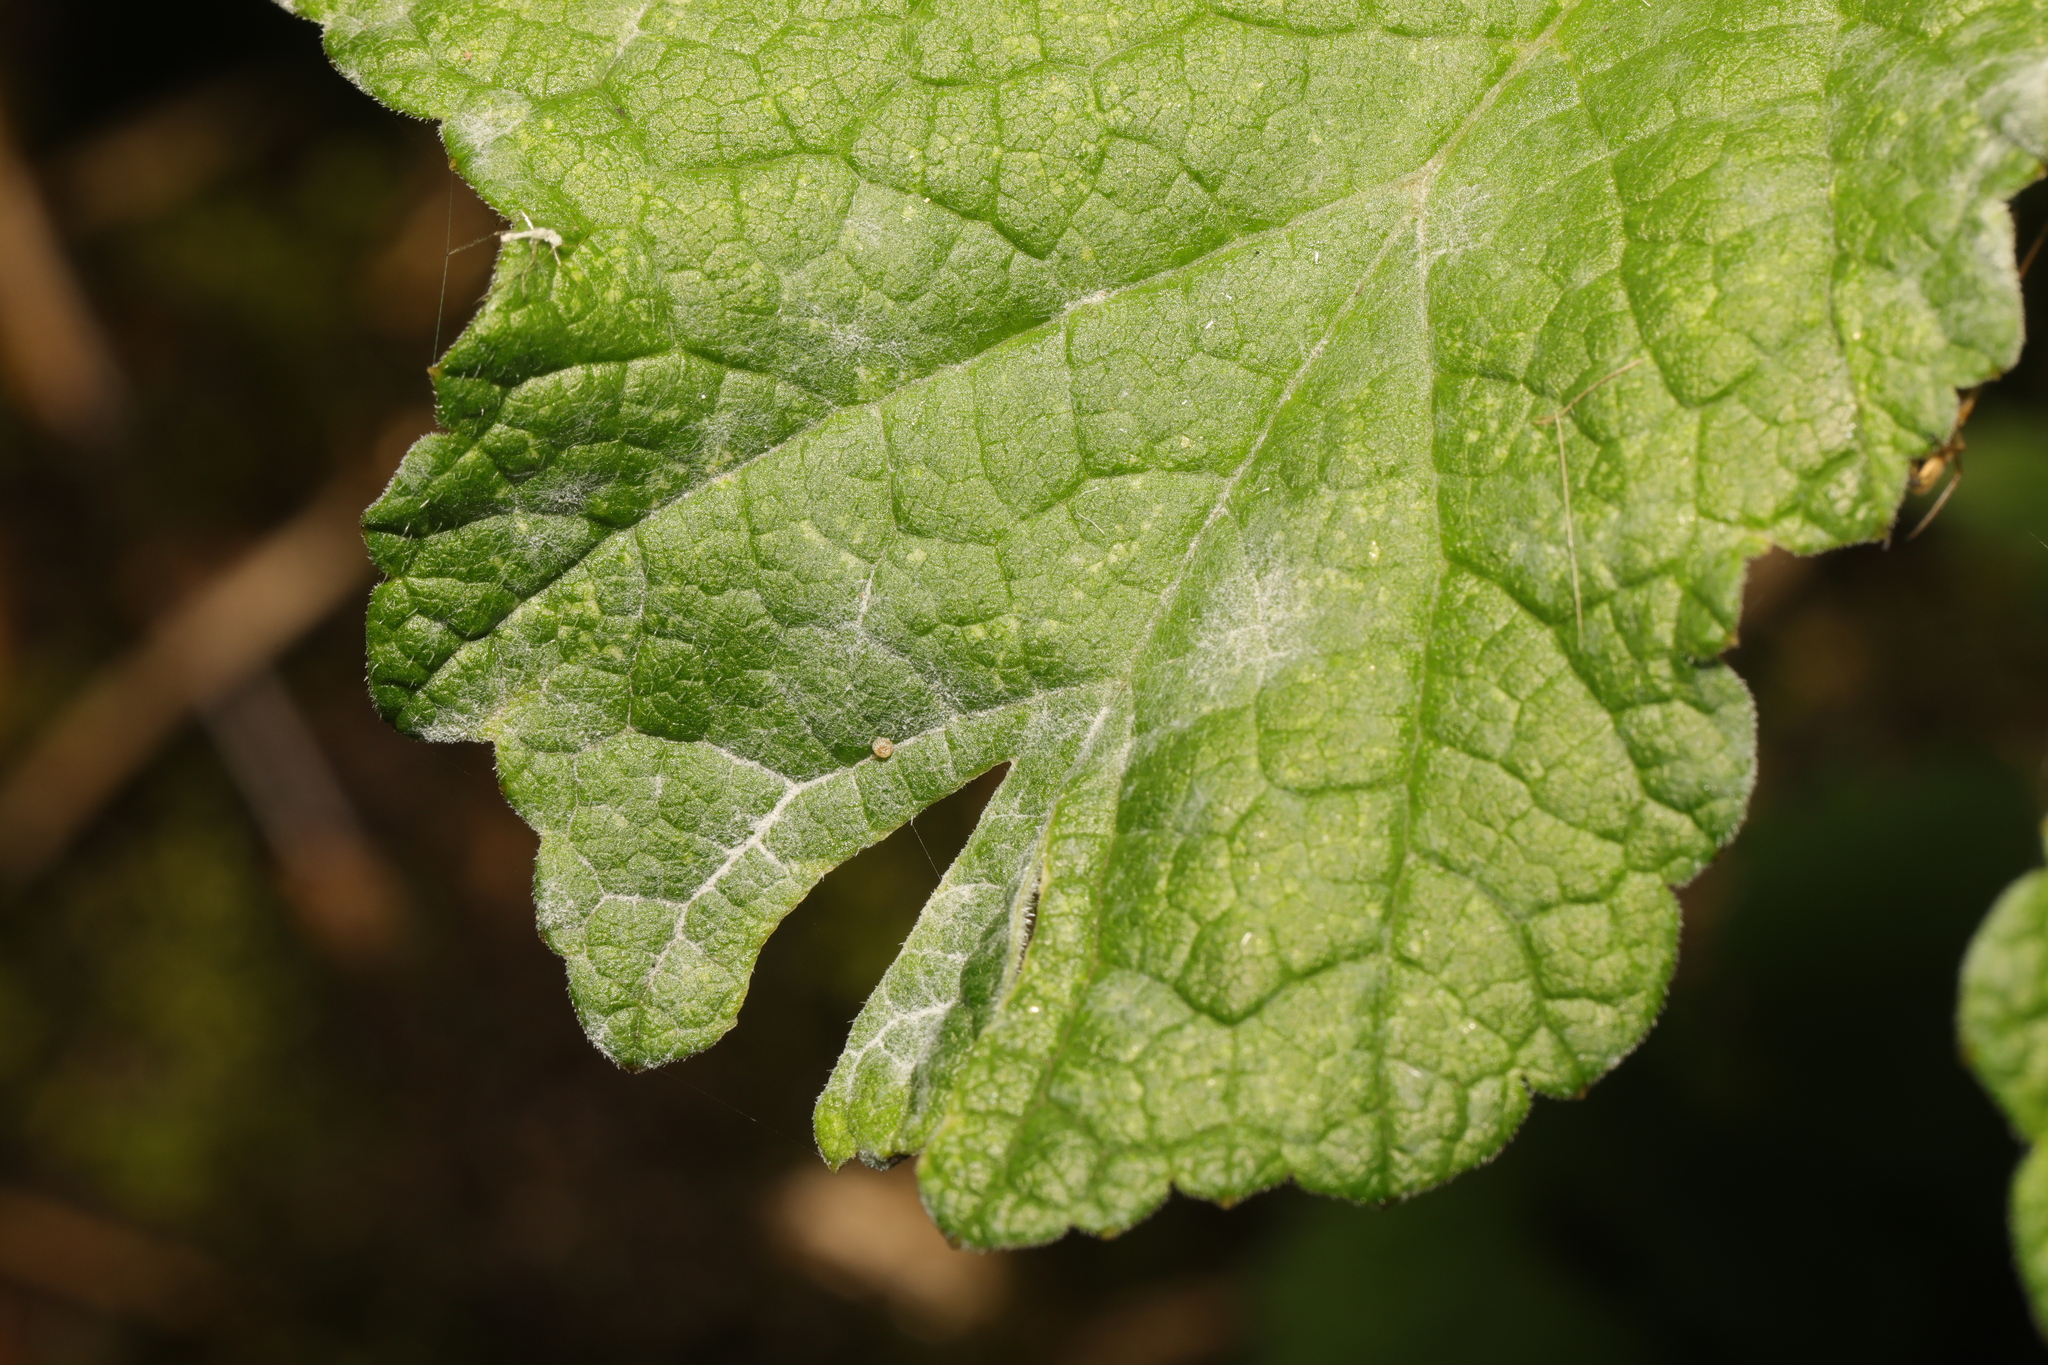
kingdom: Fungi
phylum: Ascomycota
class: Leotiomycetes
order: Helotiales
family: Erysiphaceae
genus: Erysiphe
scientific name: Erysiphe heraclei
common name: Umbellifer mildew
